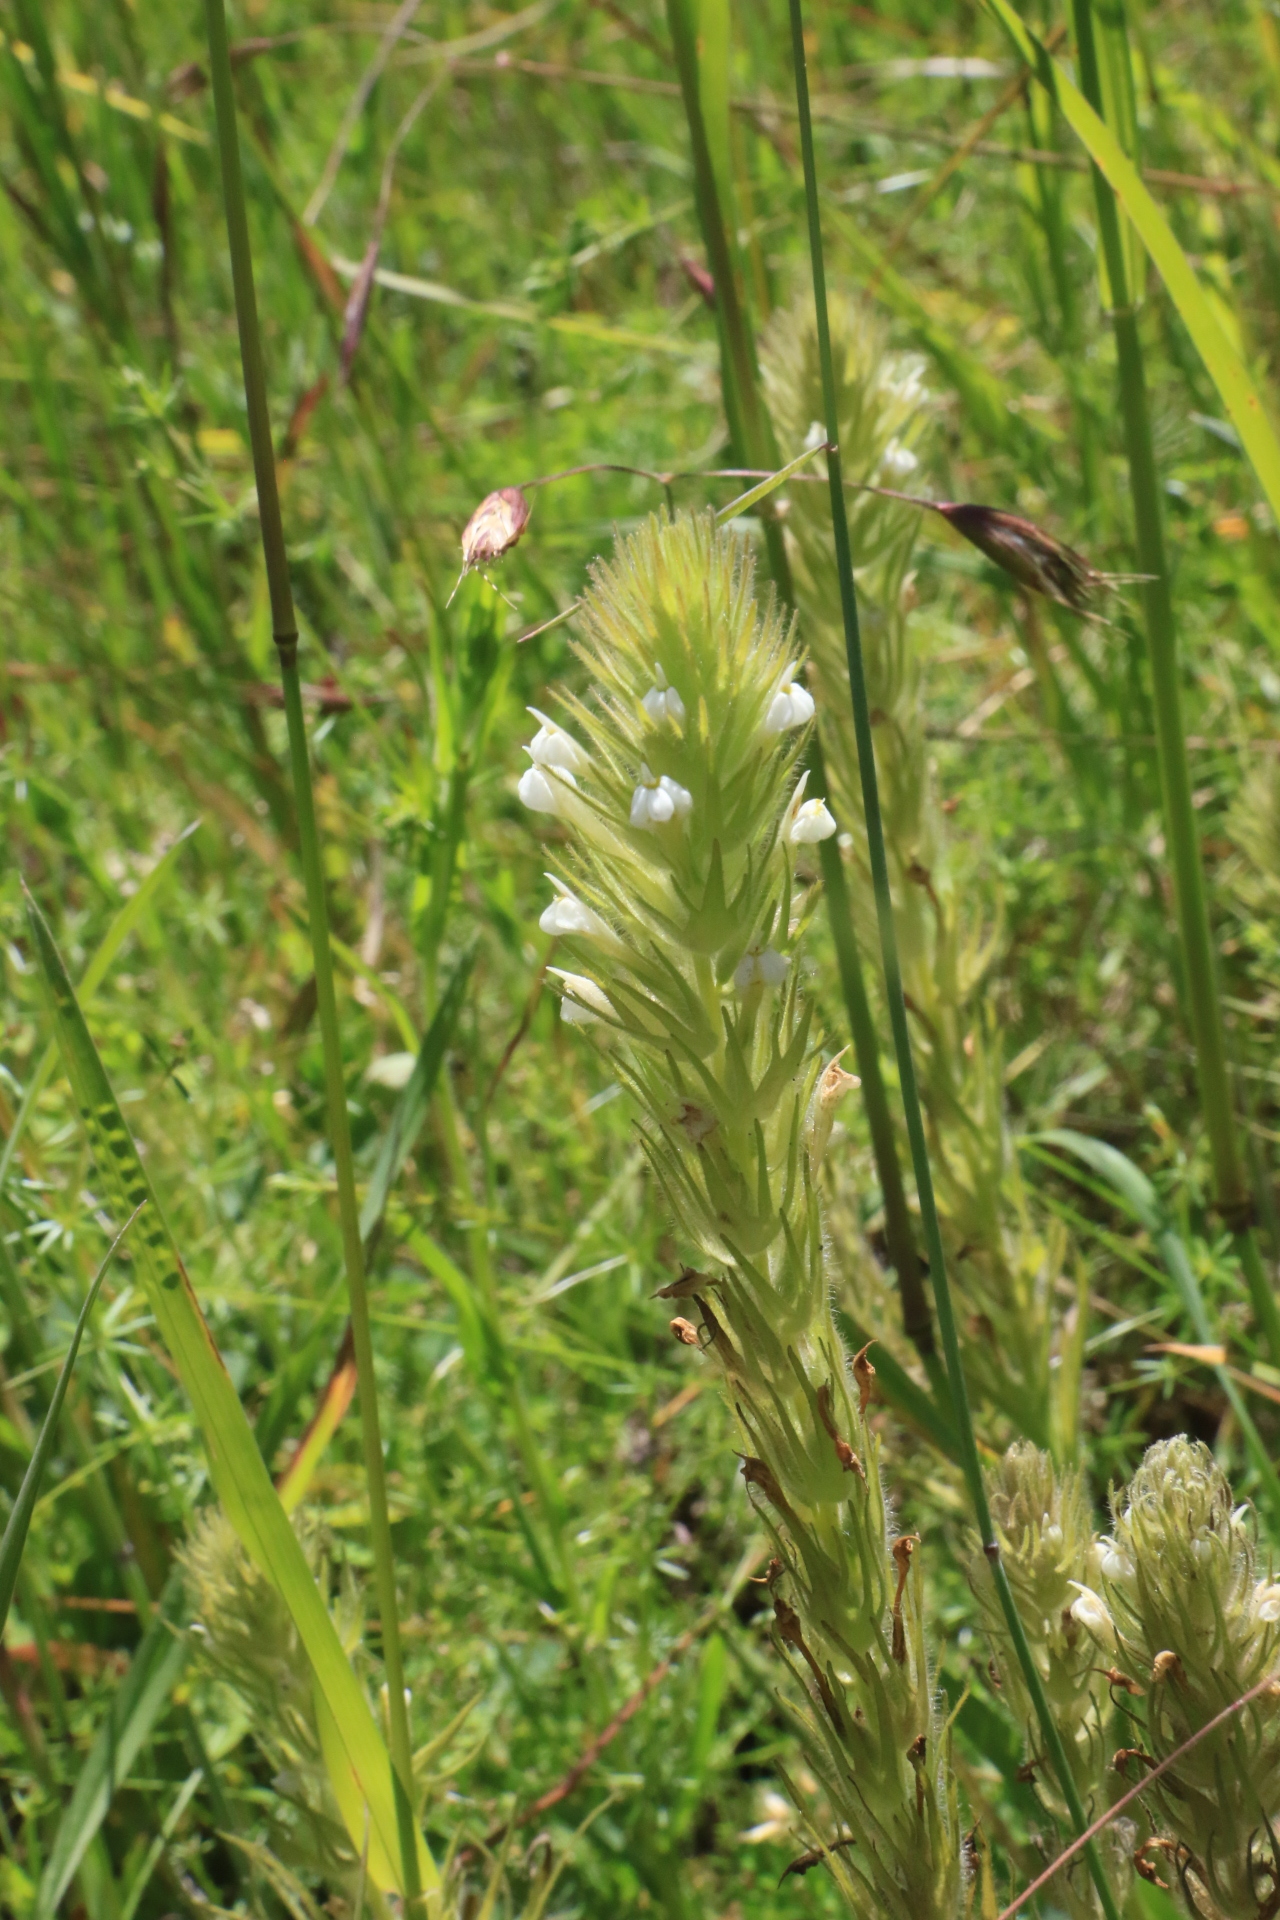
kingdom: Plantae
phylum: Tracheophyta
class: Magnoliopsida
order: Lamiales
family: Orobanchaceae
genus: Castilleja
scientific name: Castilleja tenuis
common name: Hairy indian paintbrush
